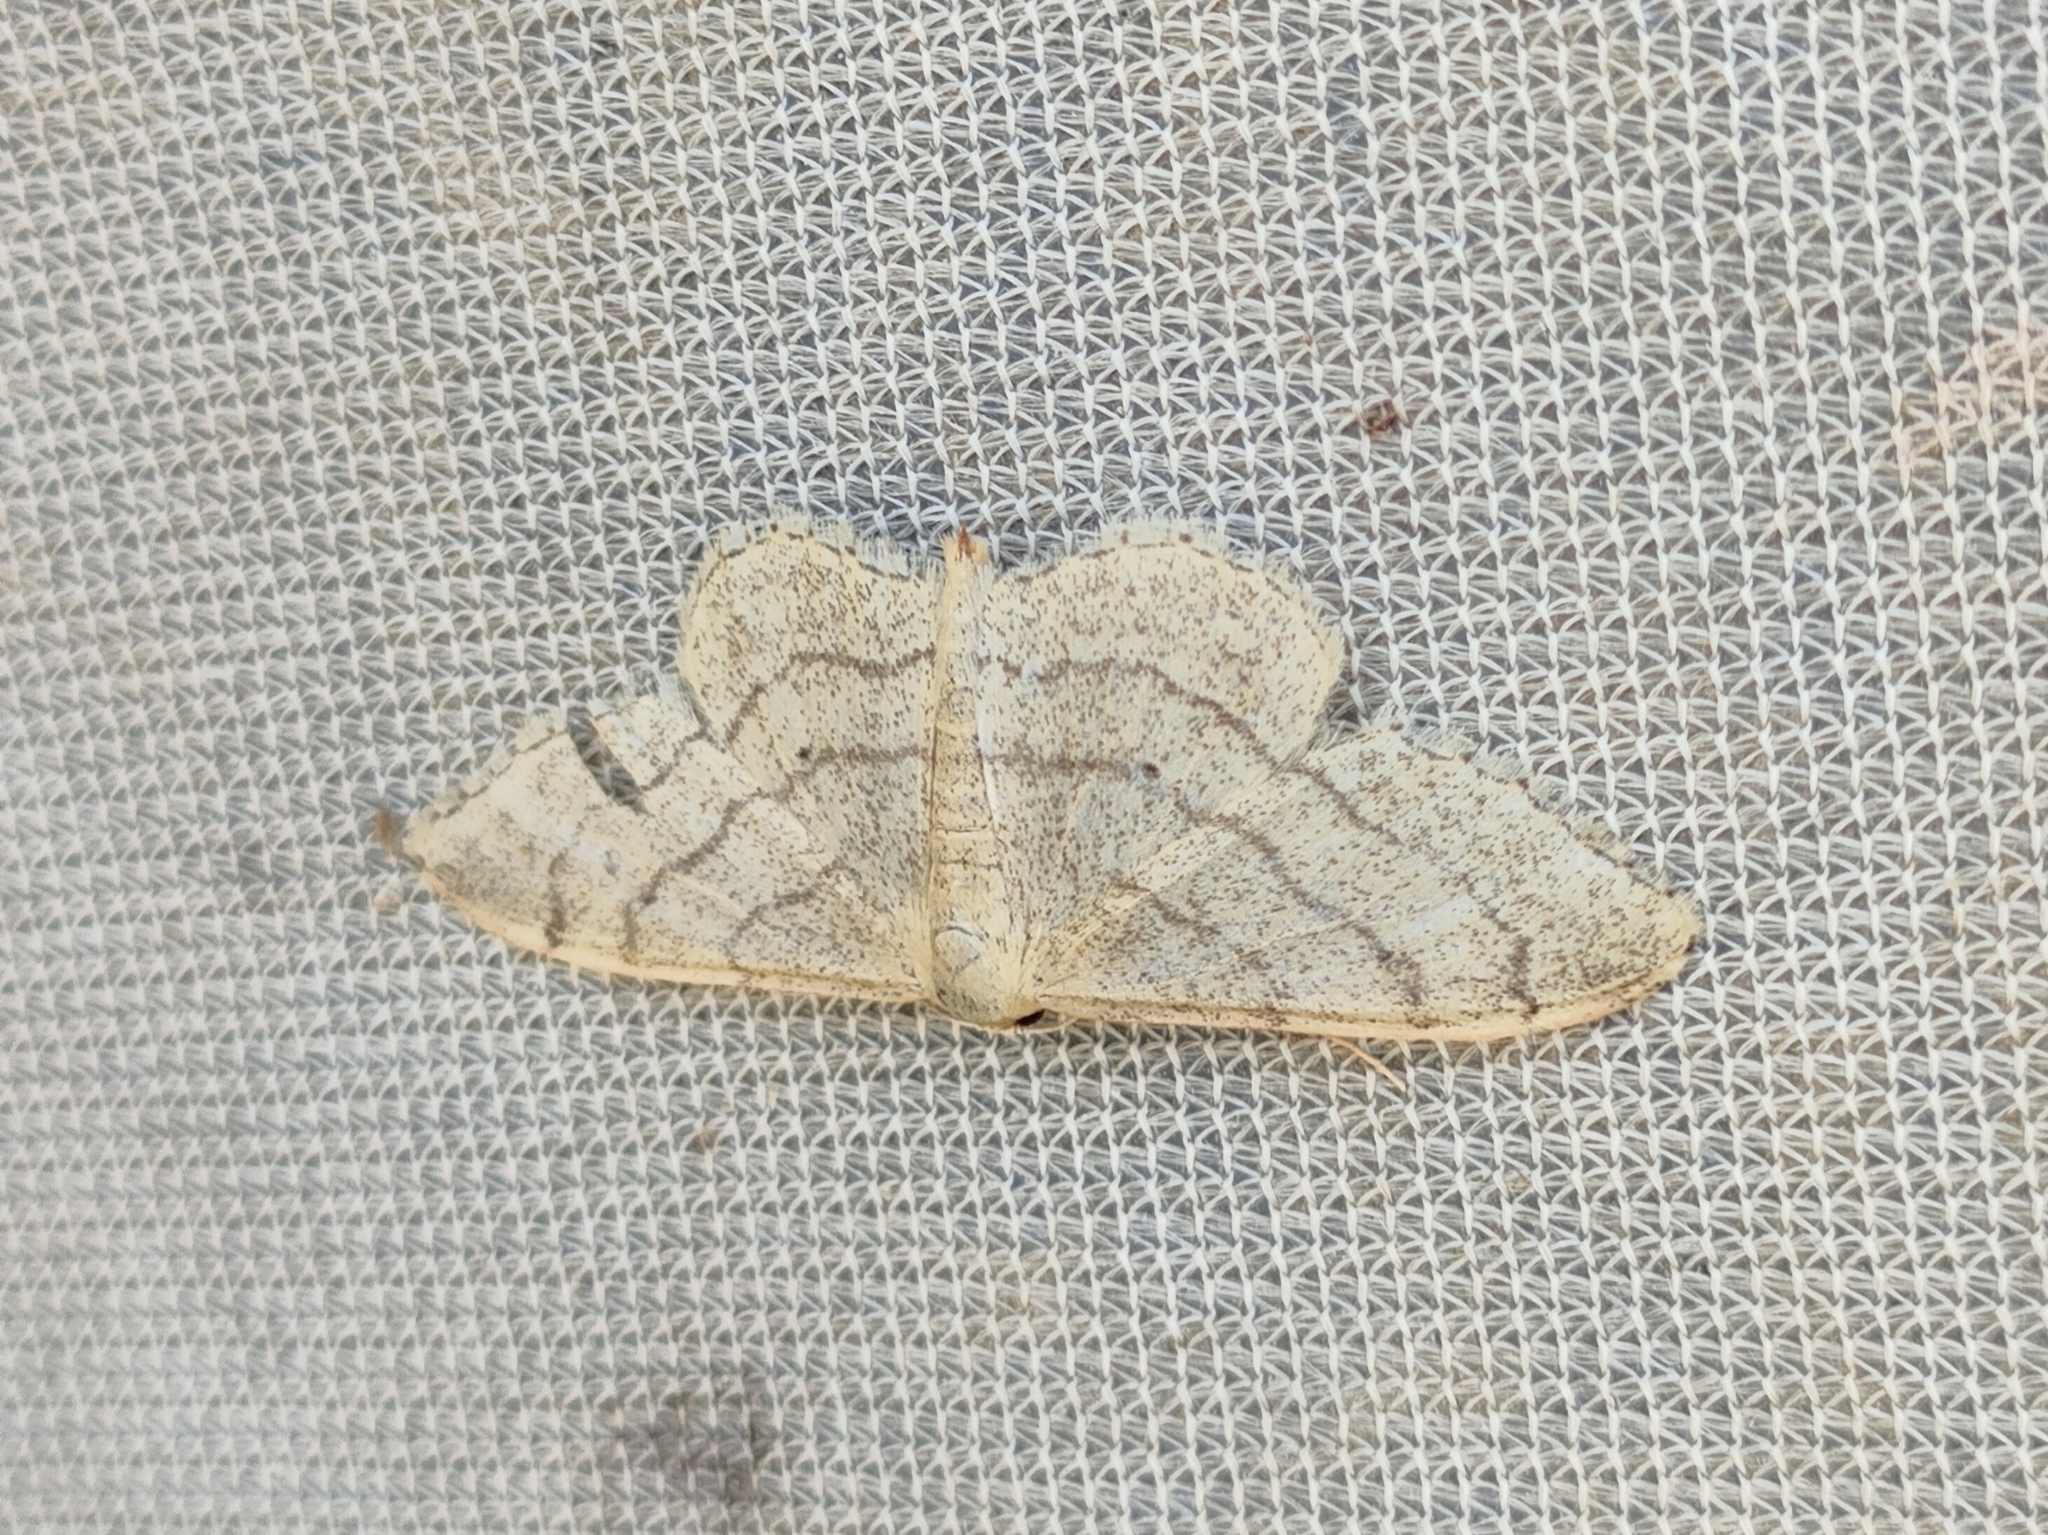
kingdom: Animalia
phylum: Arthropoda
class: Insecta
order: Lepidoptera
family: Geometridae
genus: Idaea
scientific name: Idaea aversata
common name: Riband wave
